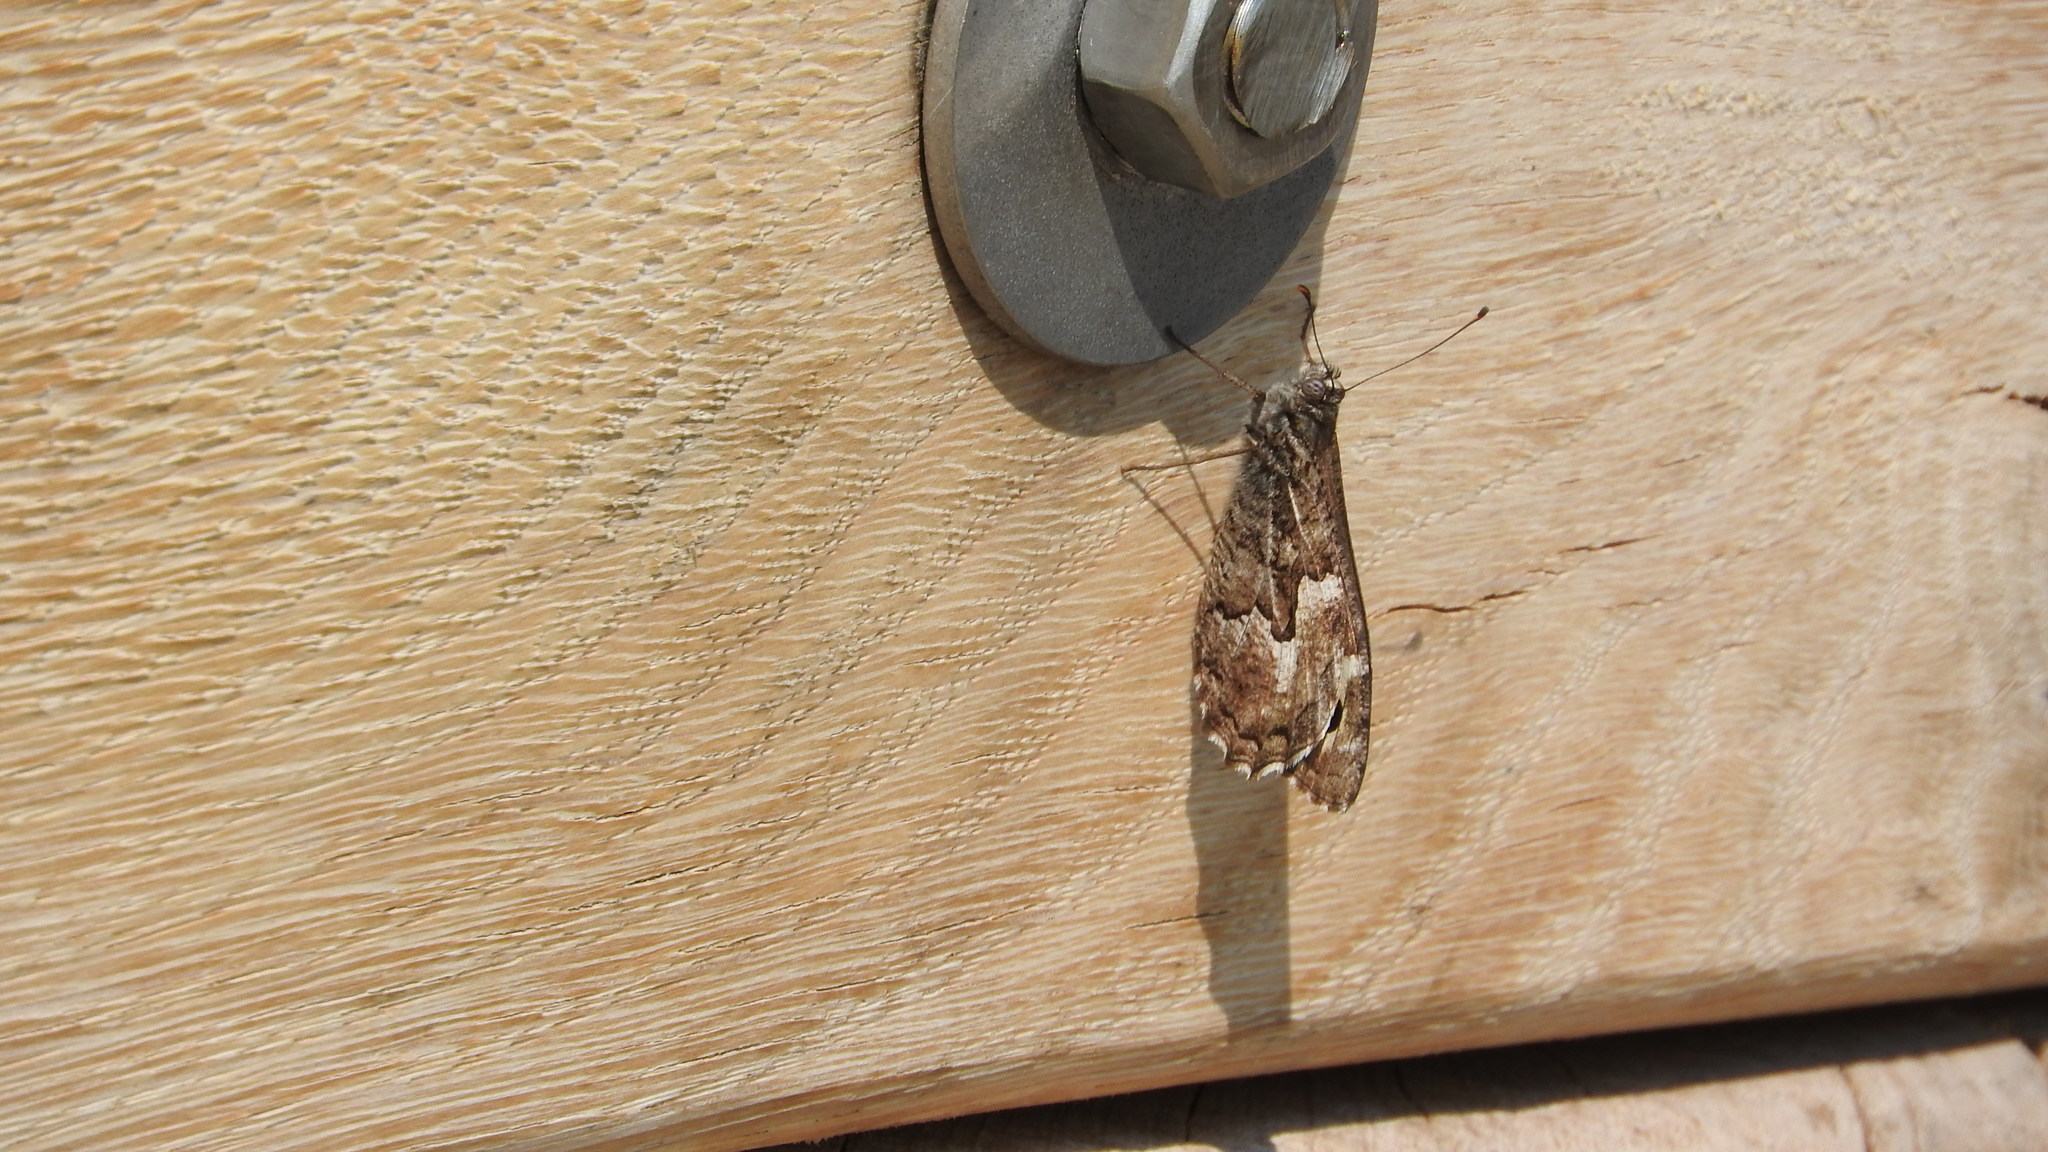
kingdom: Animalia
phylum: Arthropoda
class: Insecta
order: Lepidoptera
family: Nymphalidae
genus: Hipparchia
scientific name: Hipparchia semele
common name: Grayling
